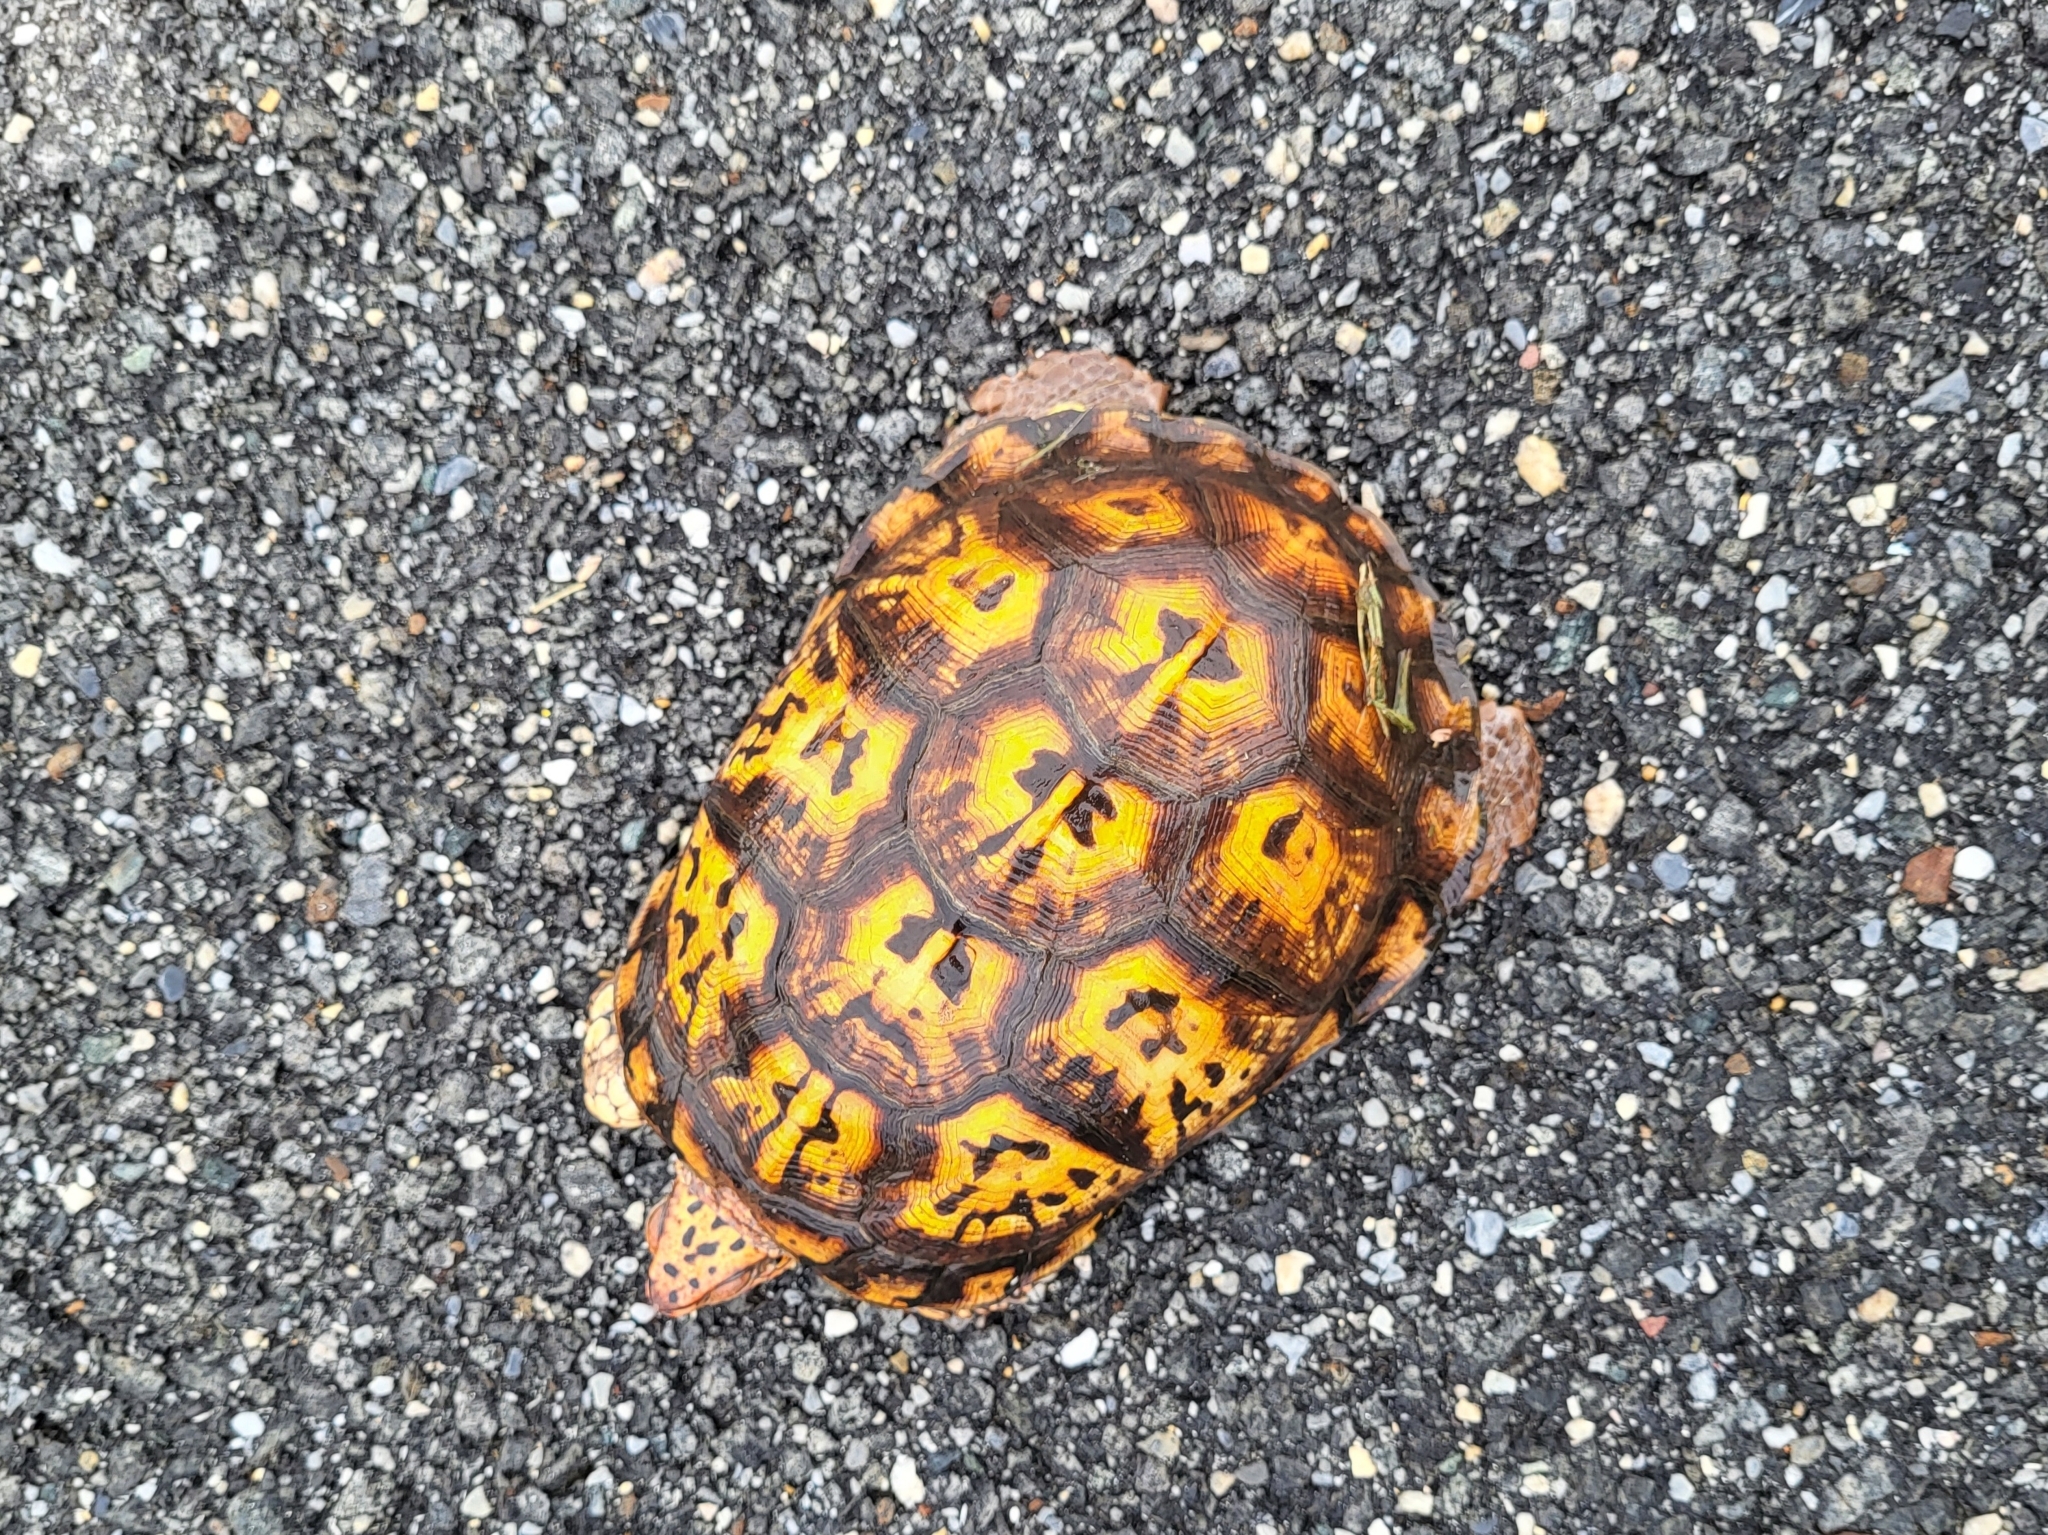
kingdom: Animalia
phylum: Chordata
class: Testudines
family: Emydidae
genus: Terrapene
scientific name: Terrapene carolina
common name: Common box turtle
